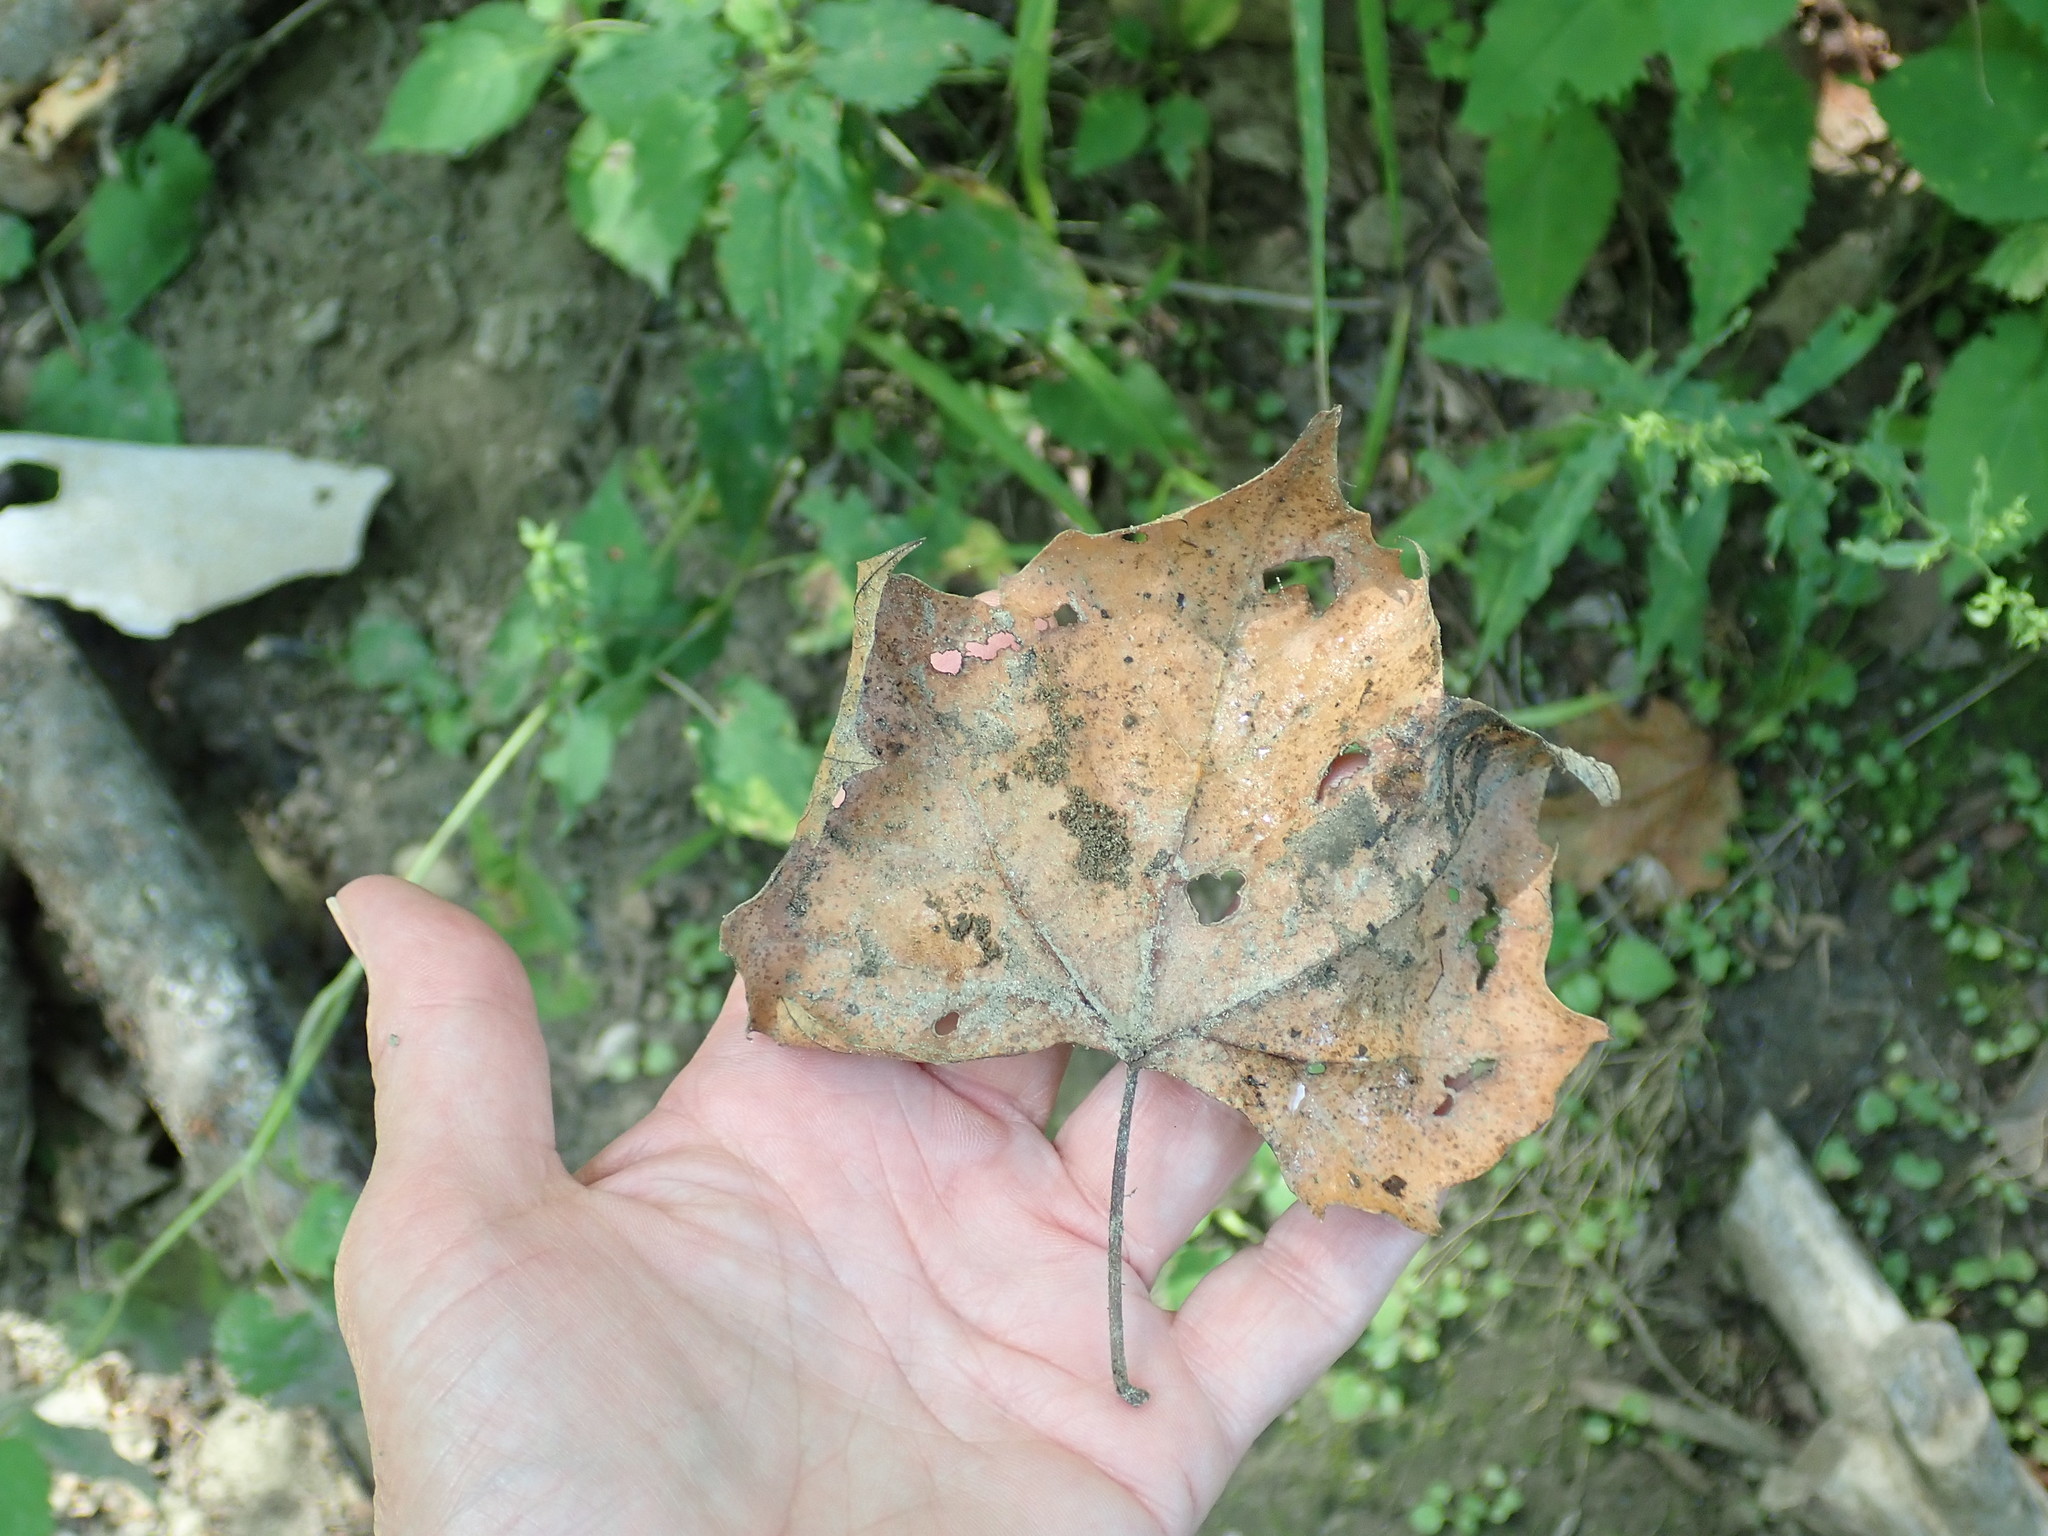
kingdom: Plantae
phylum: Tracheophyta
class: Magnoliopsida
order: Proteales
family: Platanaceae
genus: Platanus
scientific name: Platanus occidentalis
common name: American sycamore
